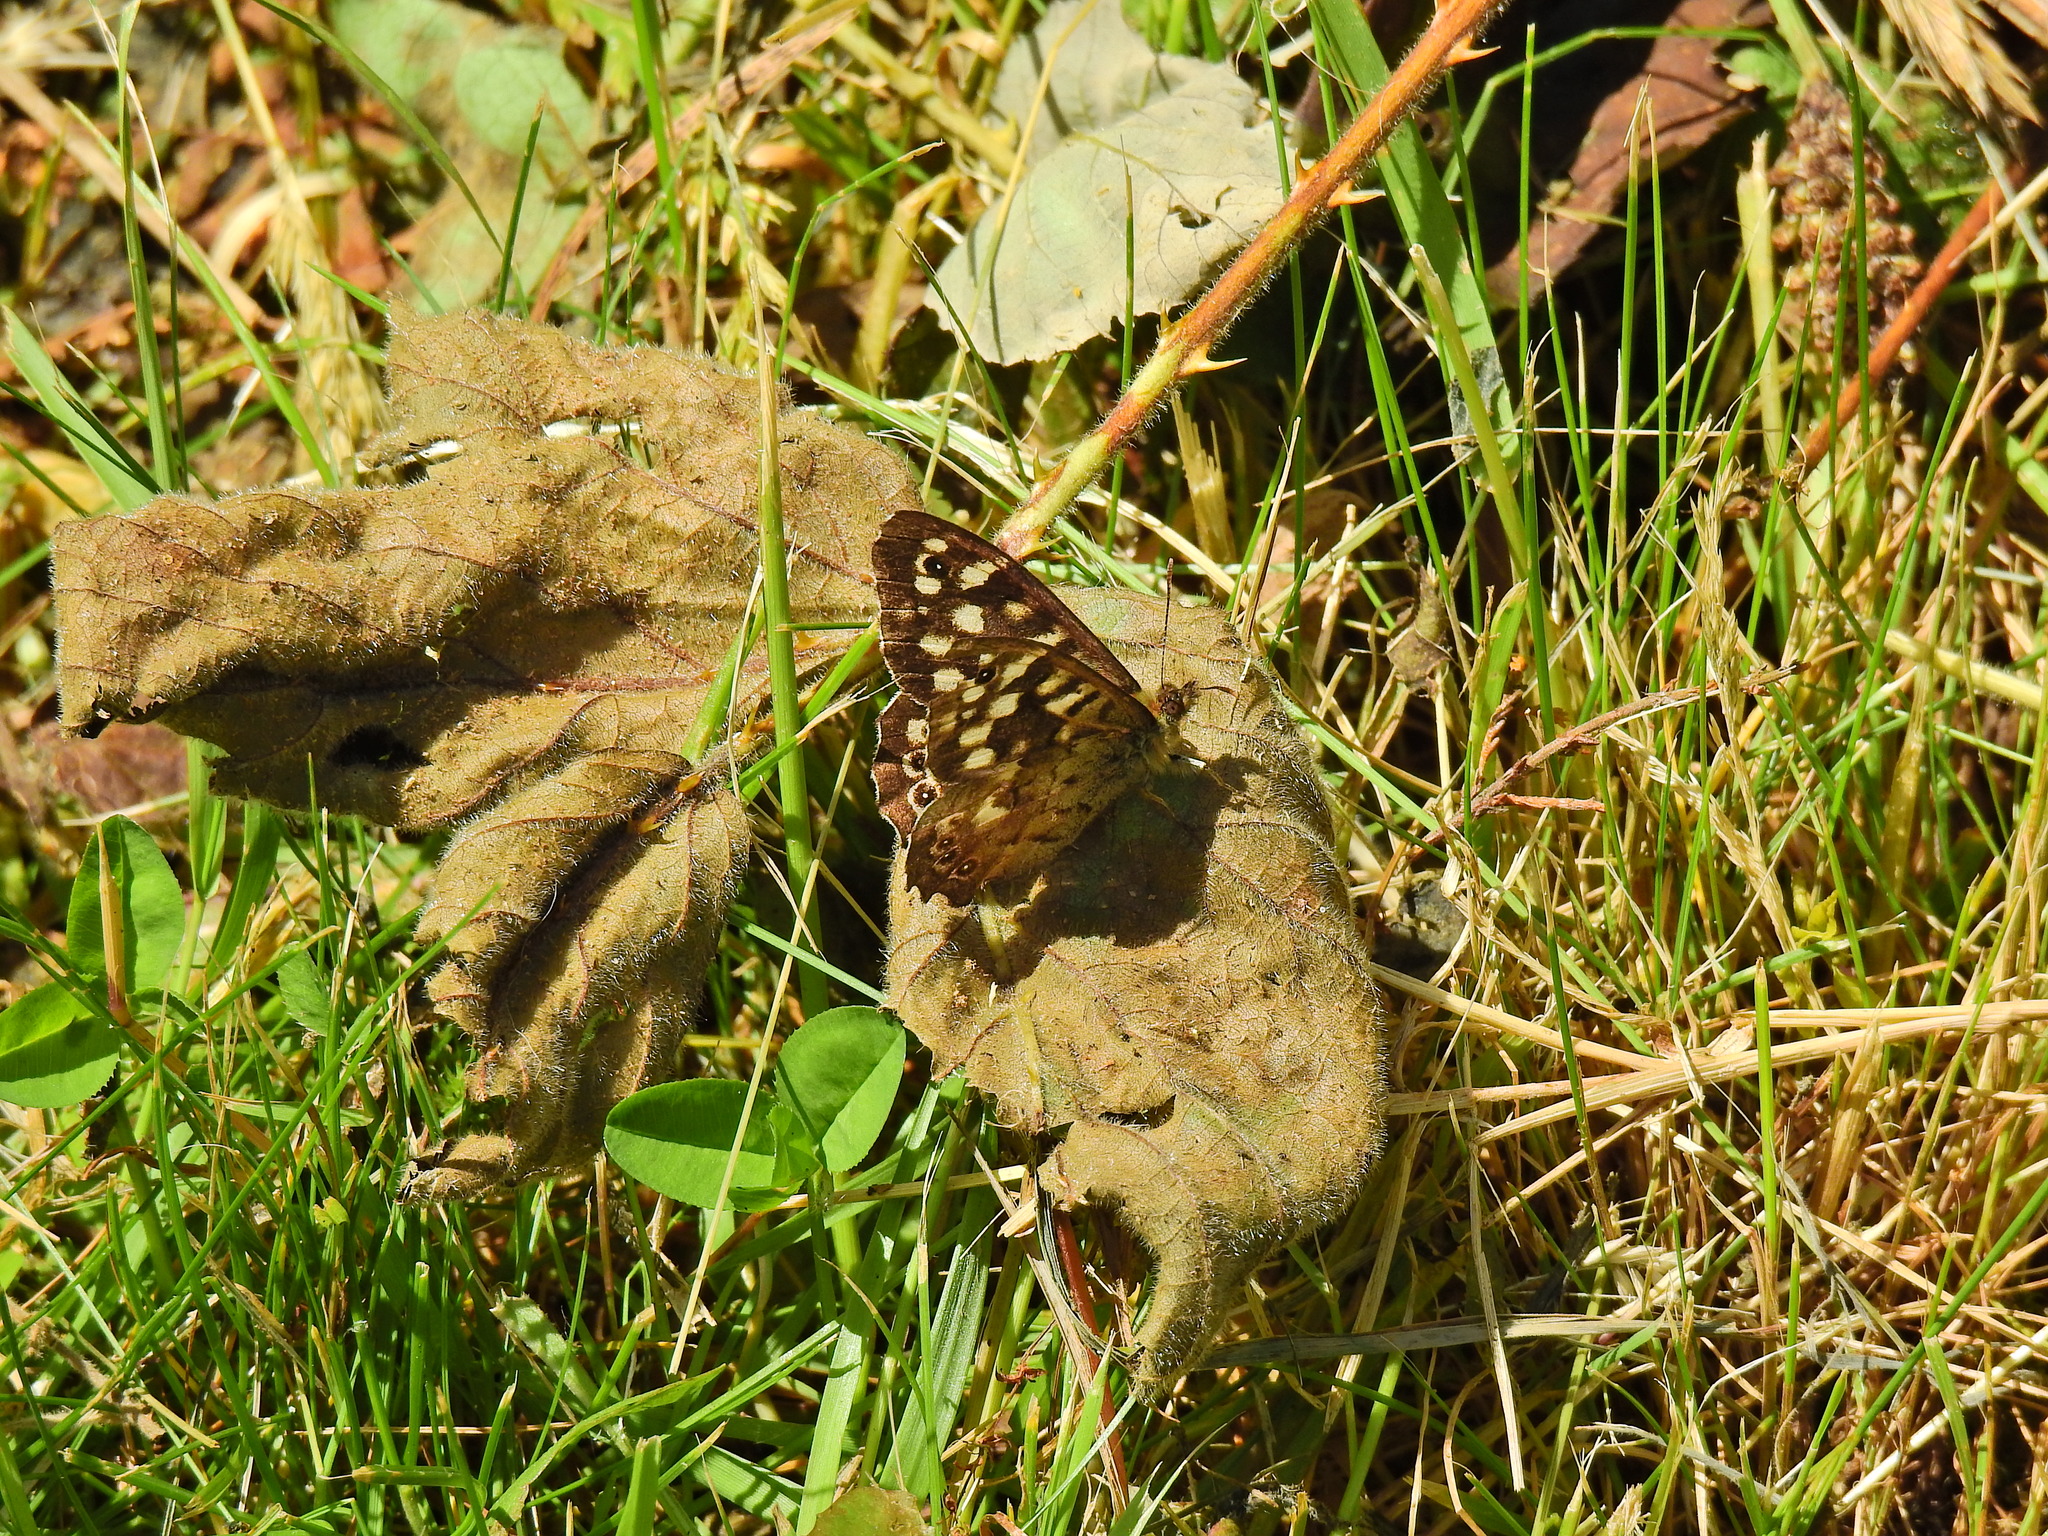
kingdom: Animalia
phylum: Arthropoda
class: Insecta
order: Lepidoptera
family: Nymphalidae
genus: Pararge
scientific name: Pararge aegeria
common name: Speckled wood
